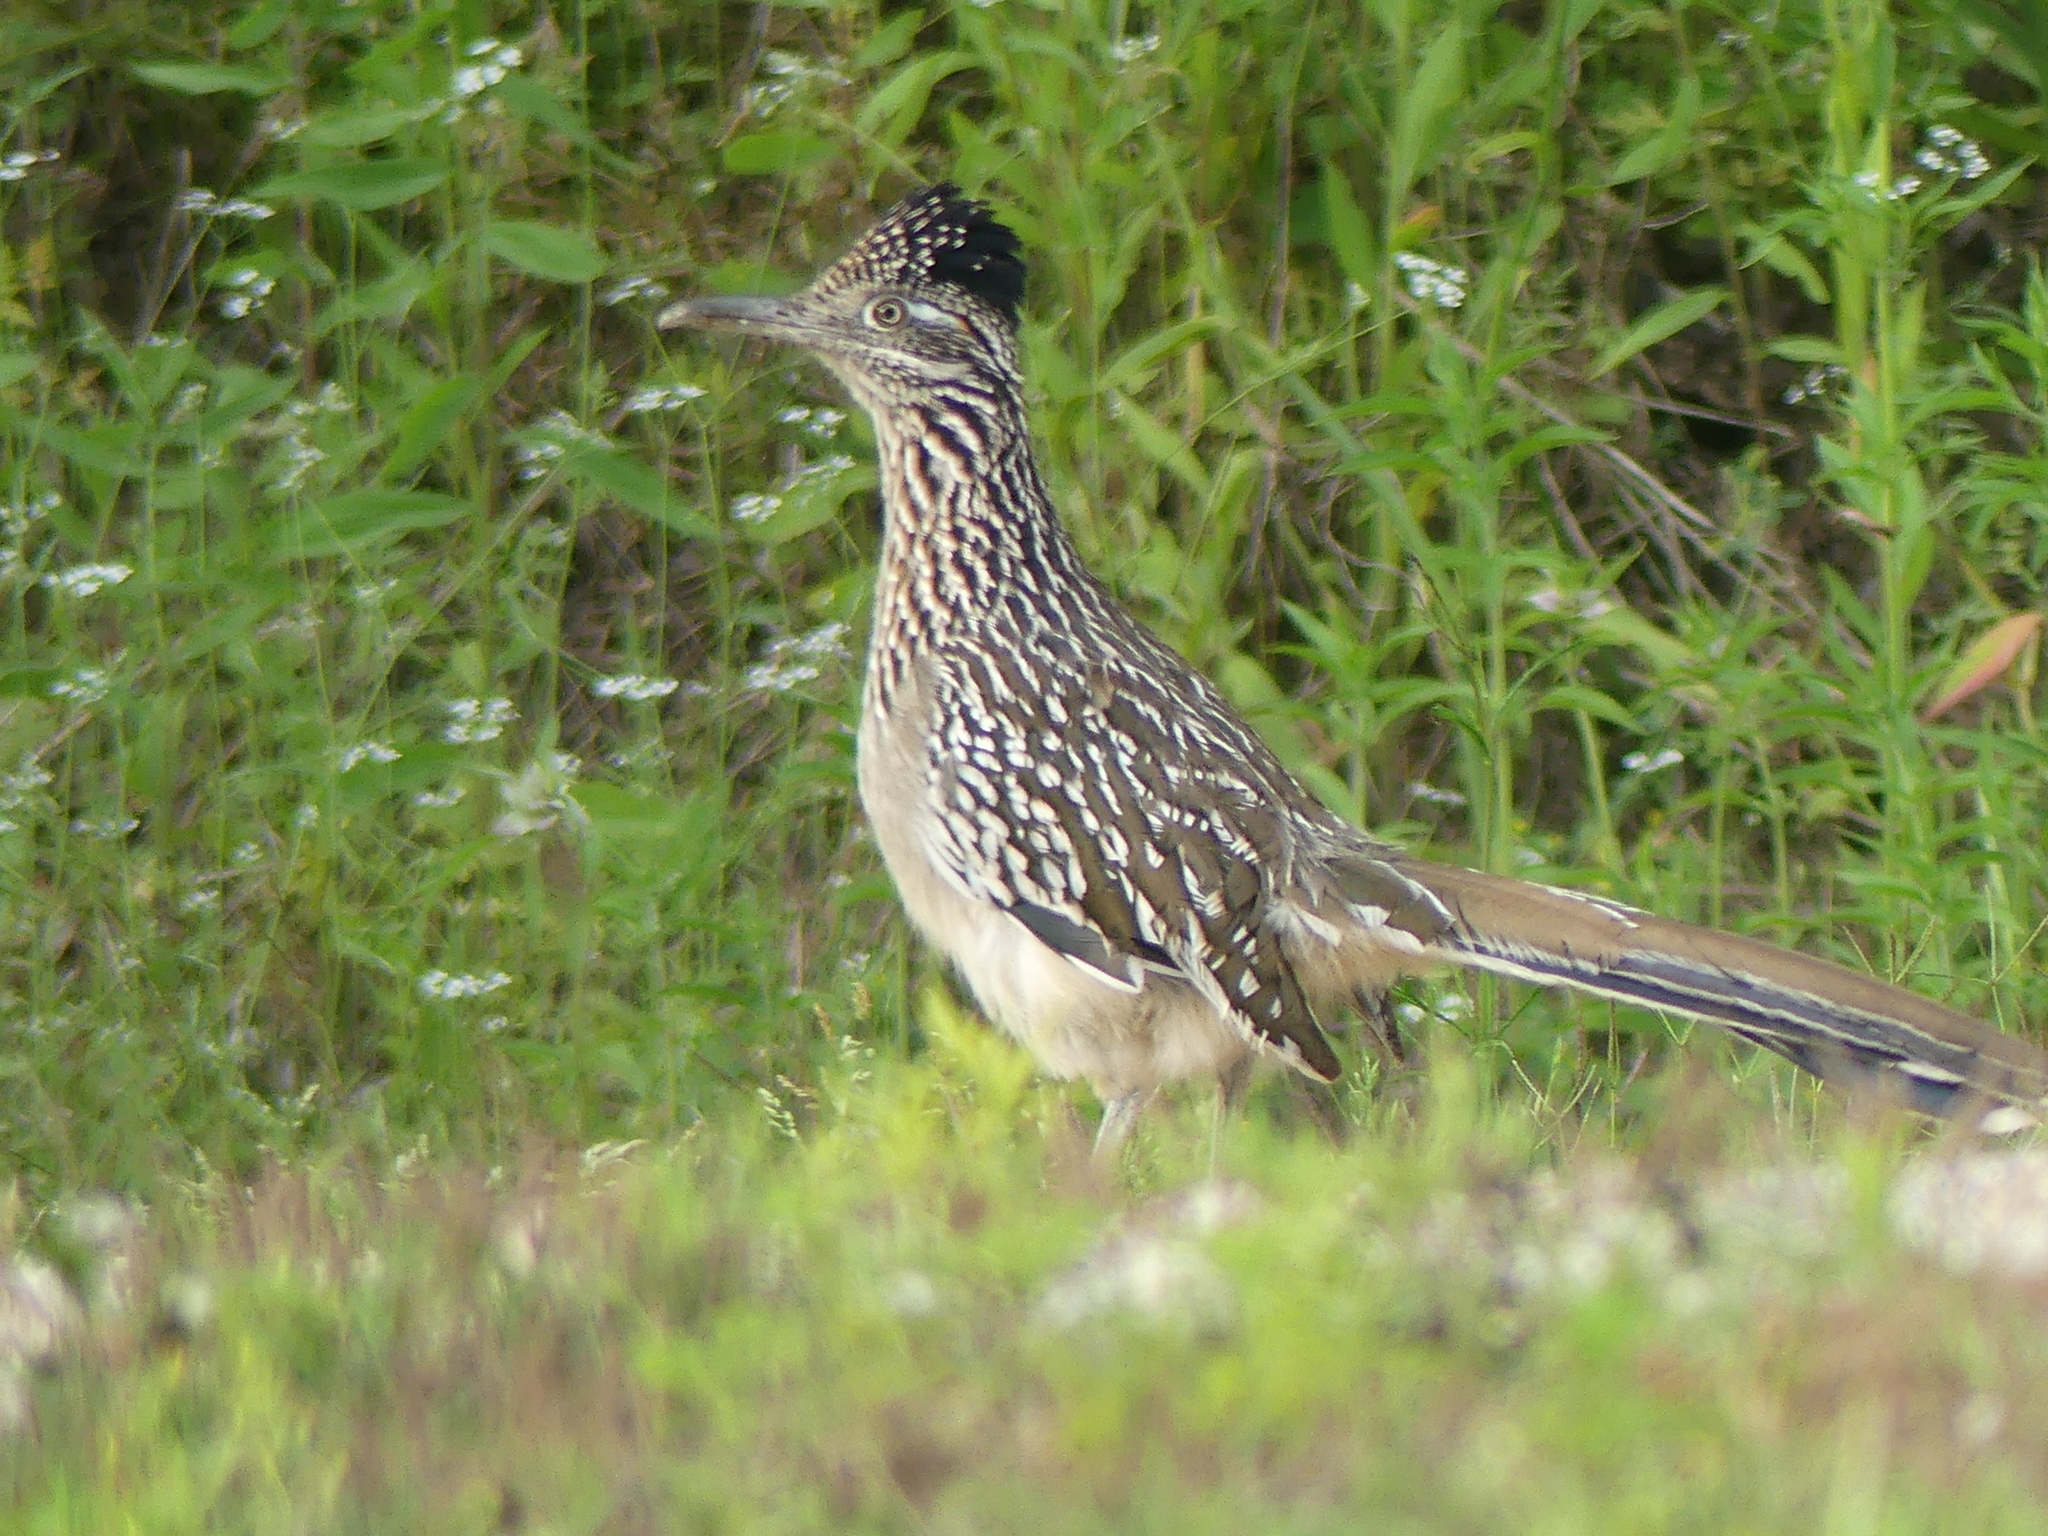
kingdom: Animalia
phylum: Chordata
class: Aves
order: Cuculiformes
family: Cuculidae
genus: Geococcyx
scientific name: Geococcyx californianus
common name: Greater roadrunner
